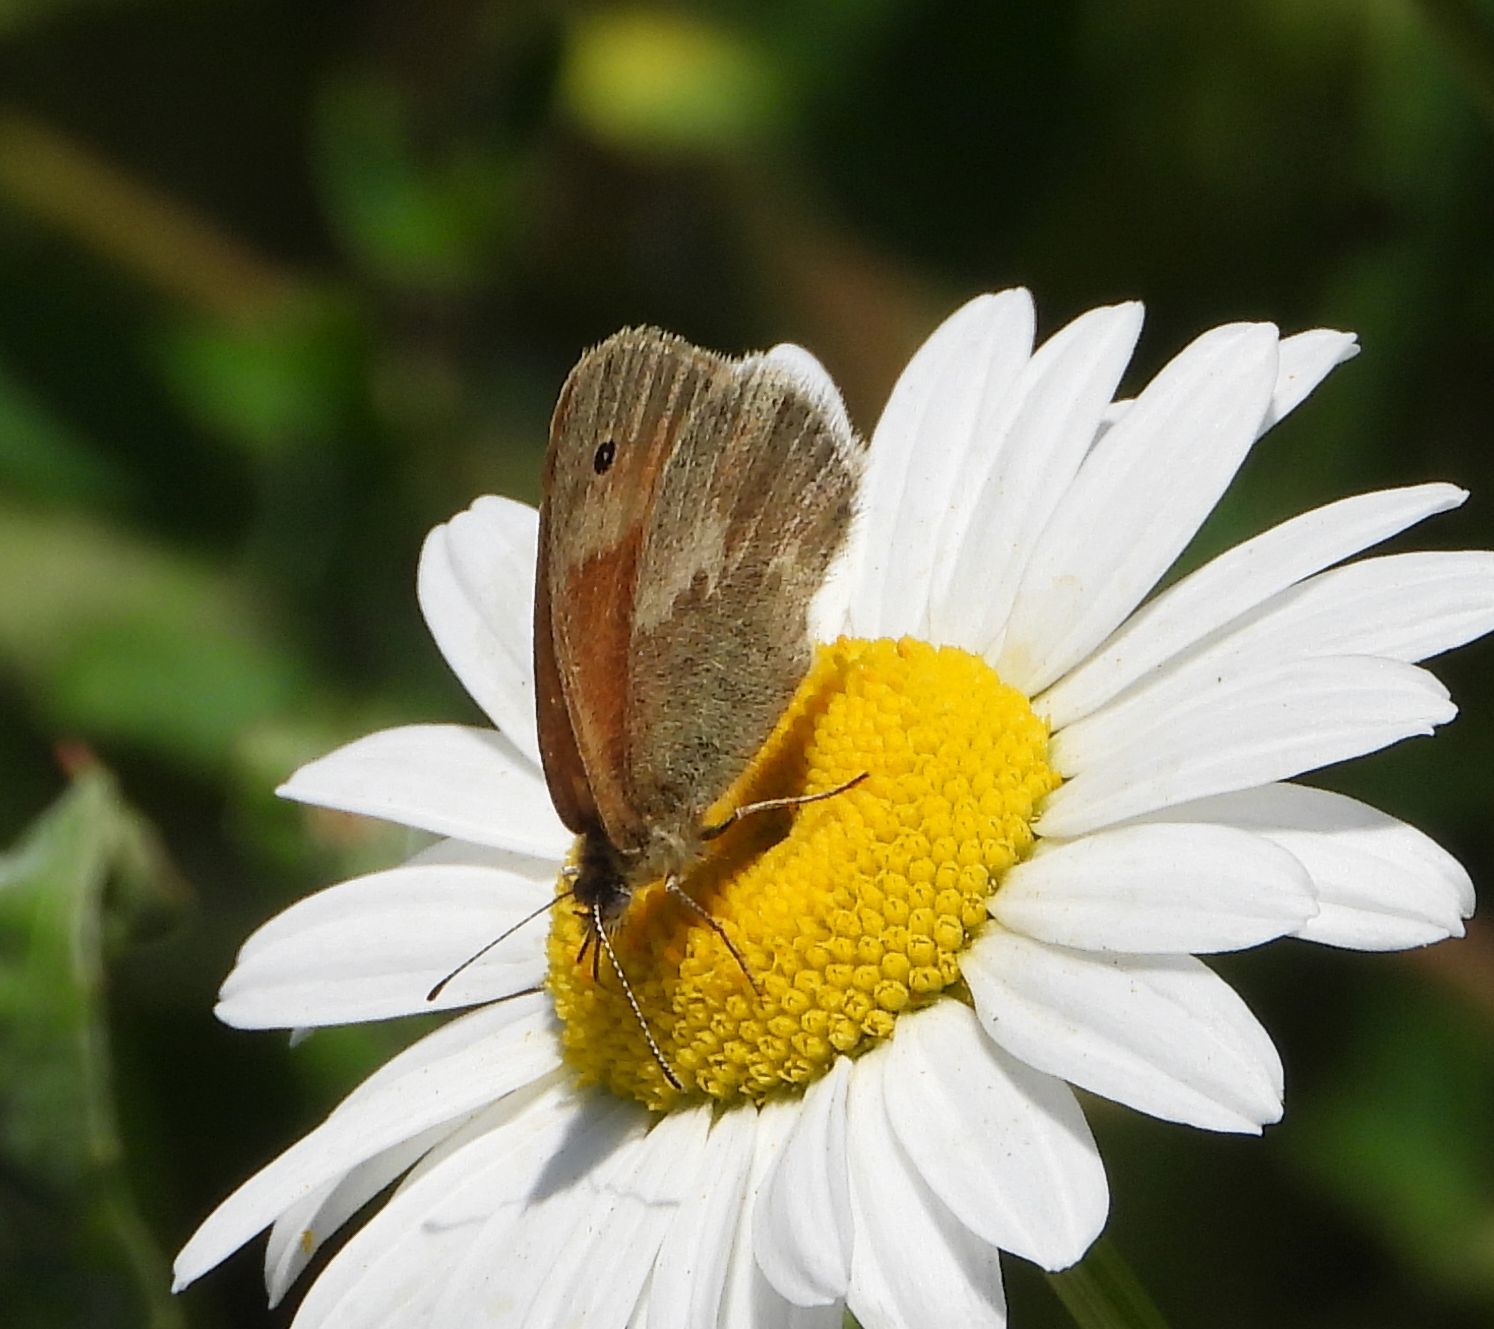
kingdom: Animalia
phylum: Arthropoda
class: Insecta
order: Lepidoptera
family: Nymphalidae
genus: Coenonympha
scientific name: Coenonympha california
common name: Common ringlet
